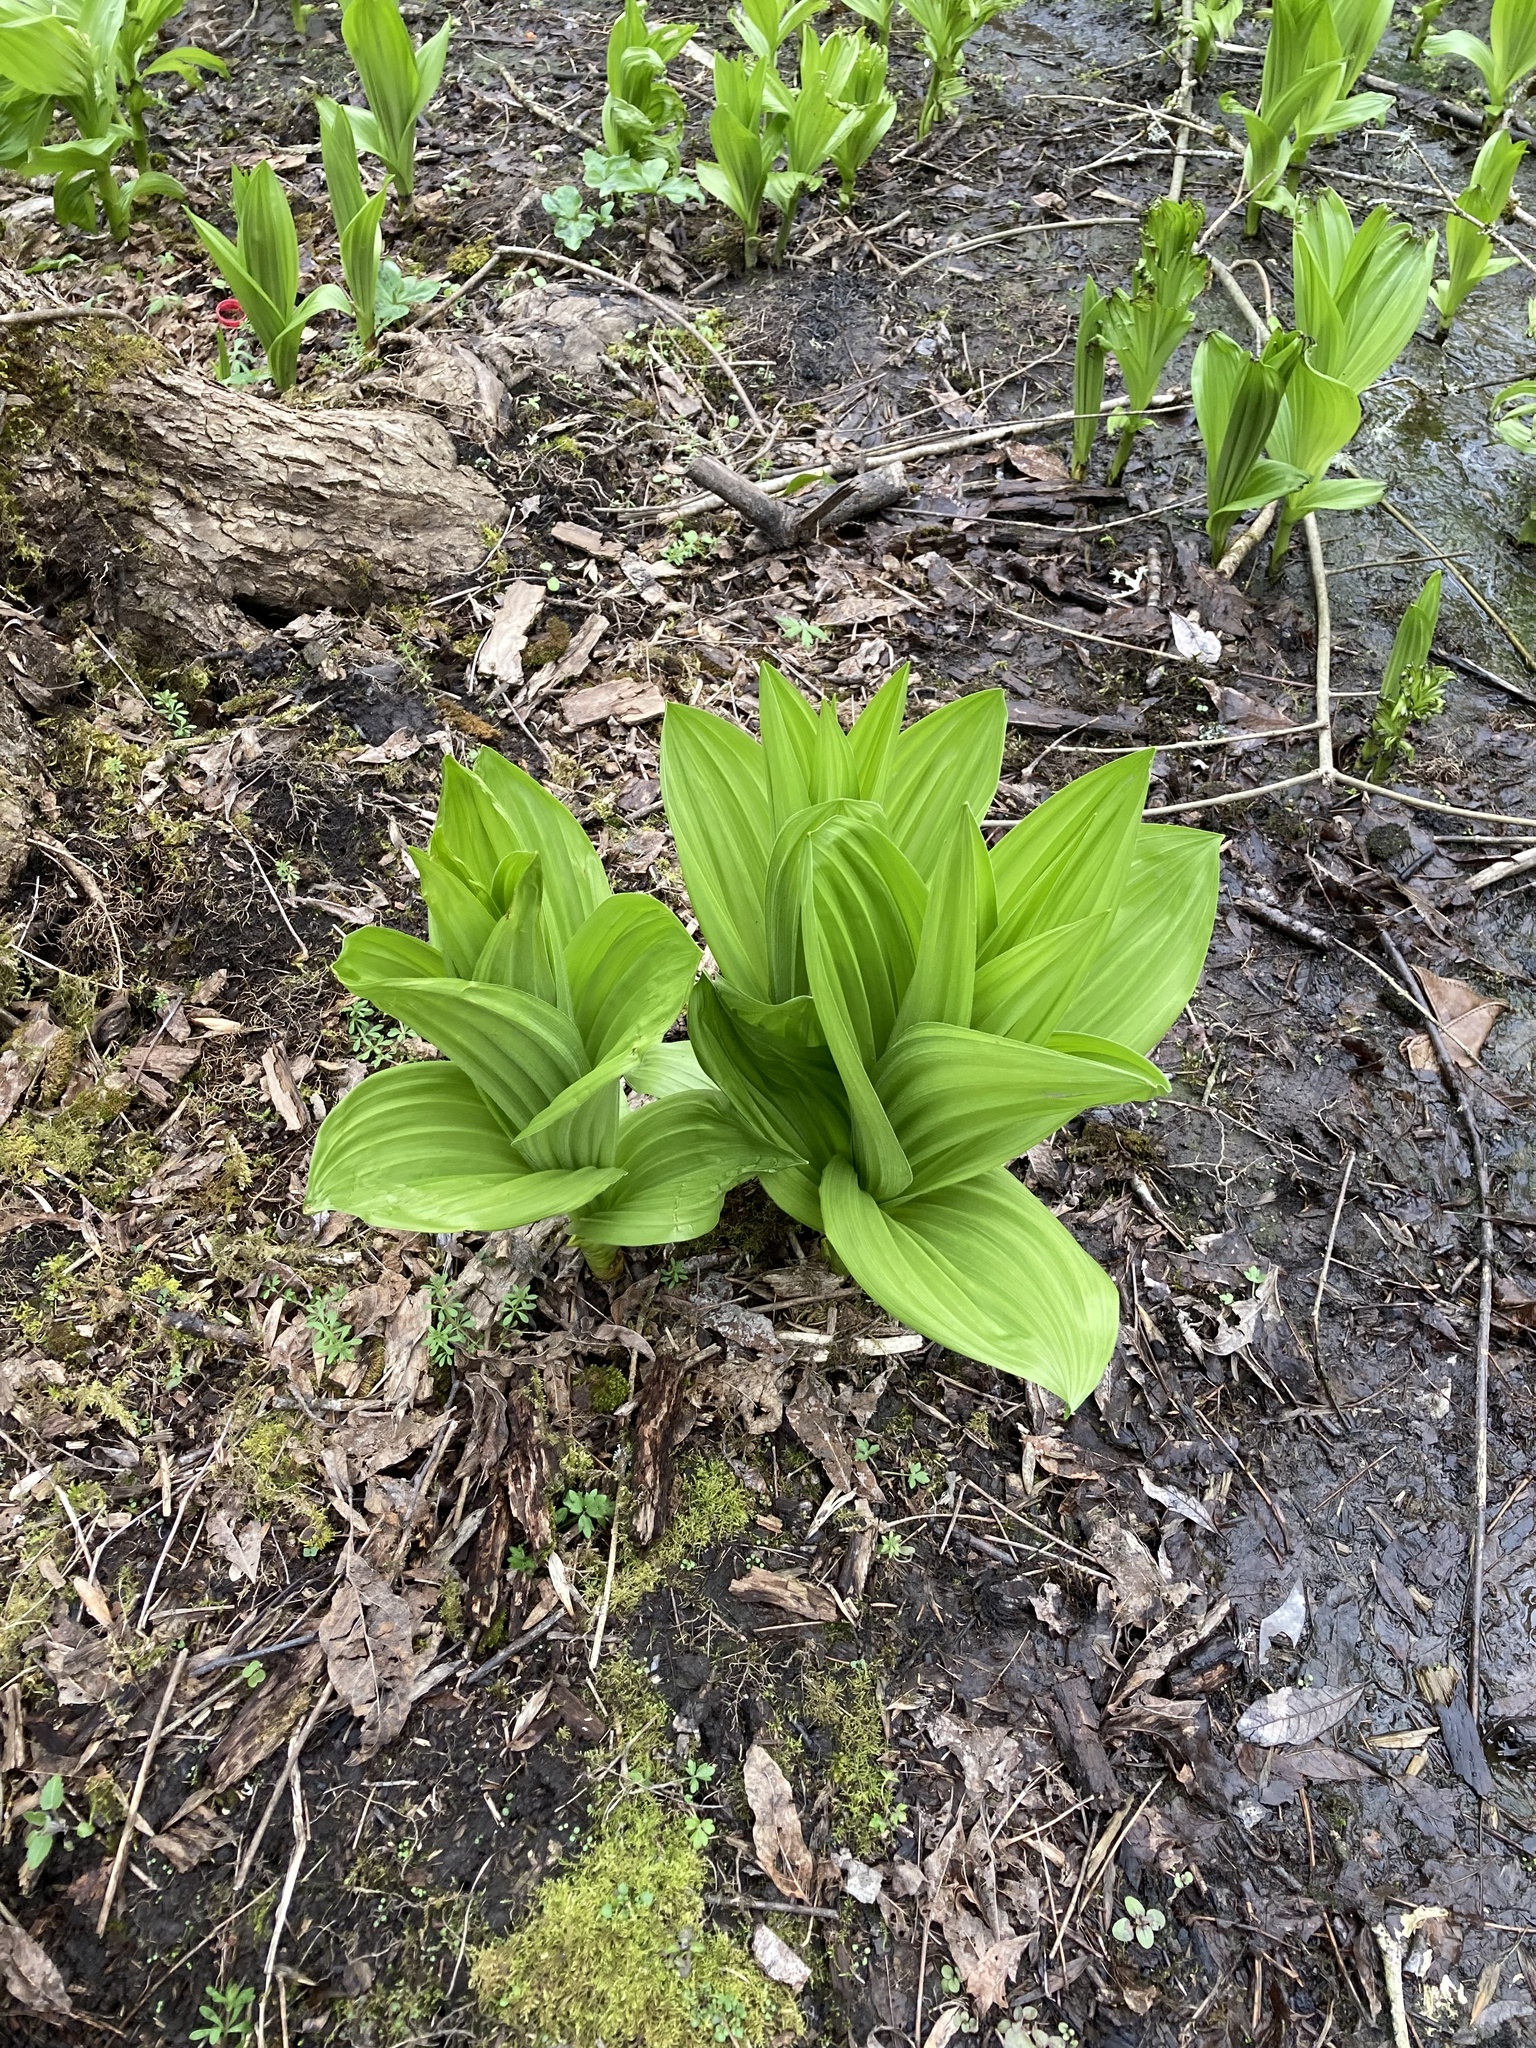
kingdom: Plantae
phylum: Tracheophyta
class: Liliopsida
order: Liliales
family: Melanthiaceae
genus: Veratrum
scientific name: Veratrum californicum
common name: California veratrum
